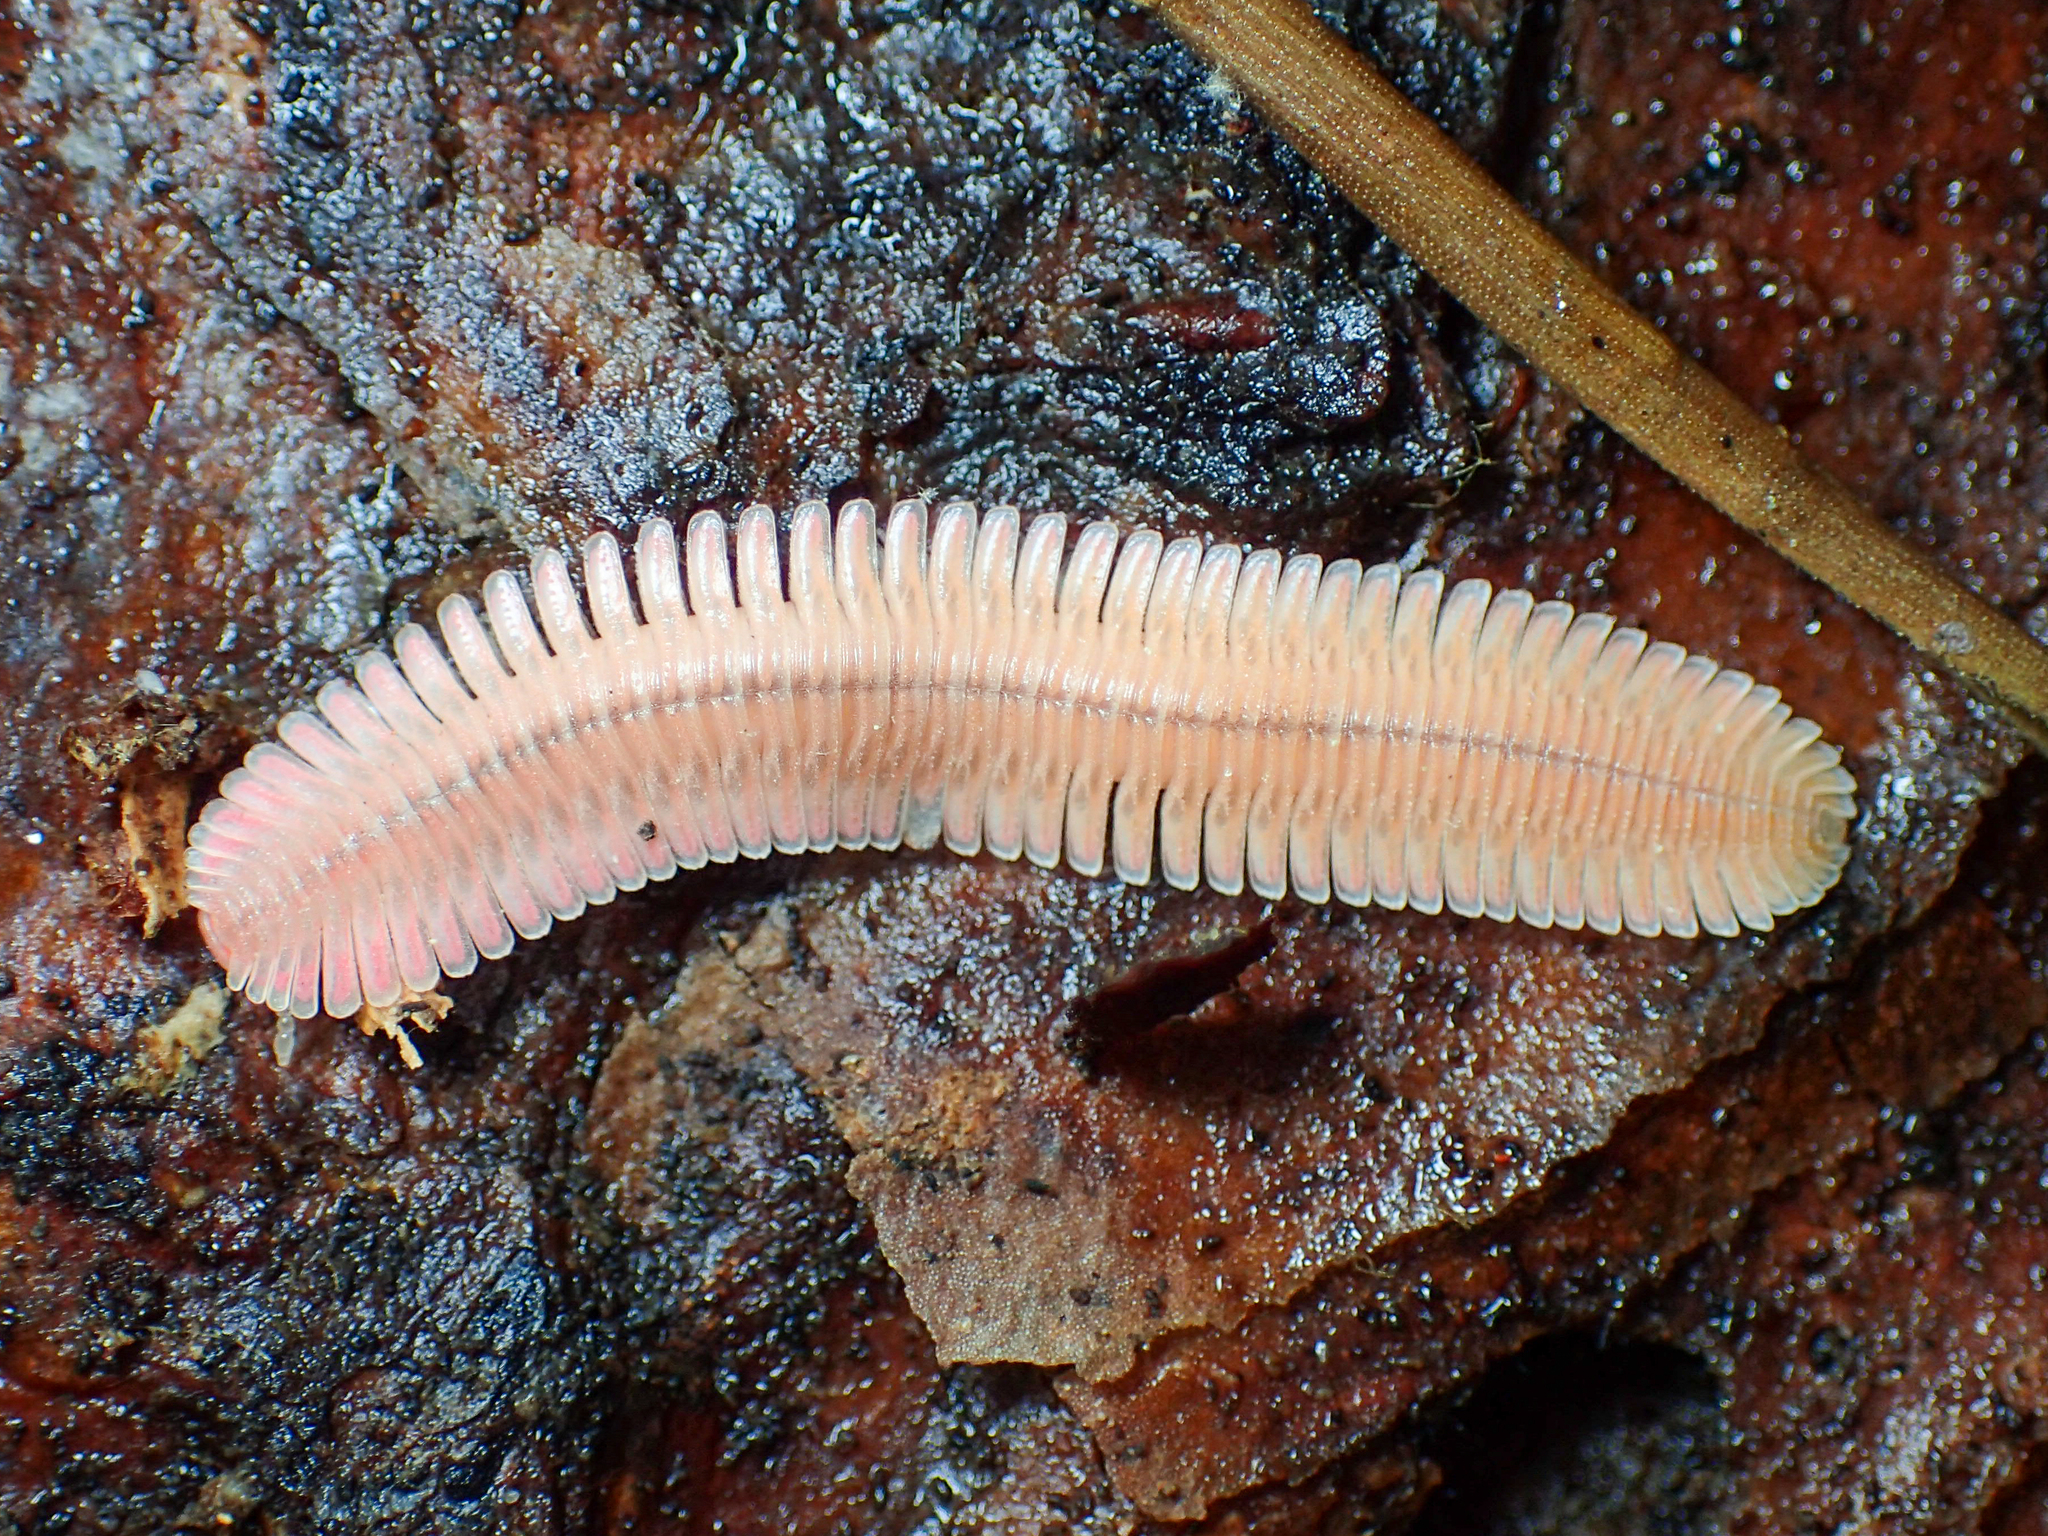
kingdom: Animalia
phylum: Arthropoda
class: Diplopoda
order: Platydesmida
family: Andrognathidae
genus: Brachycybe
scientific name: Brachycybe lecontii
